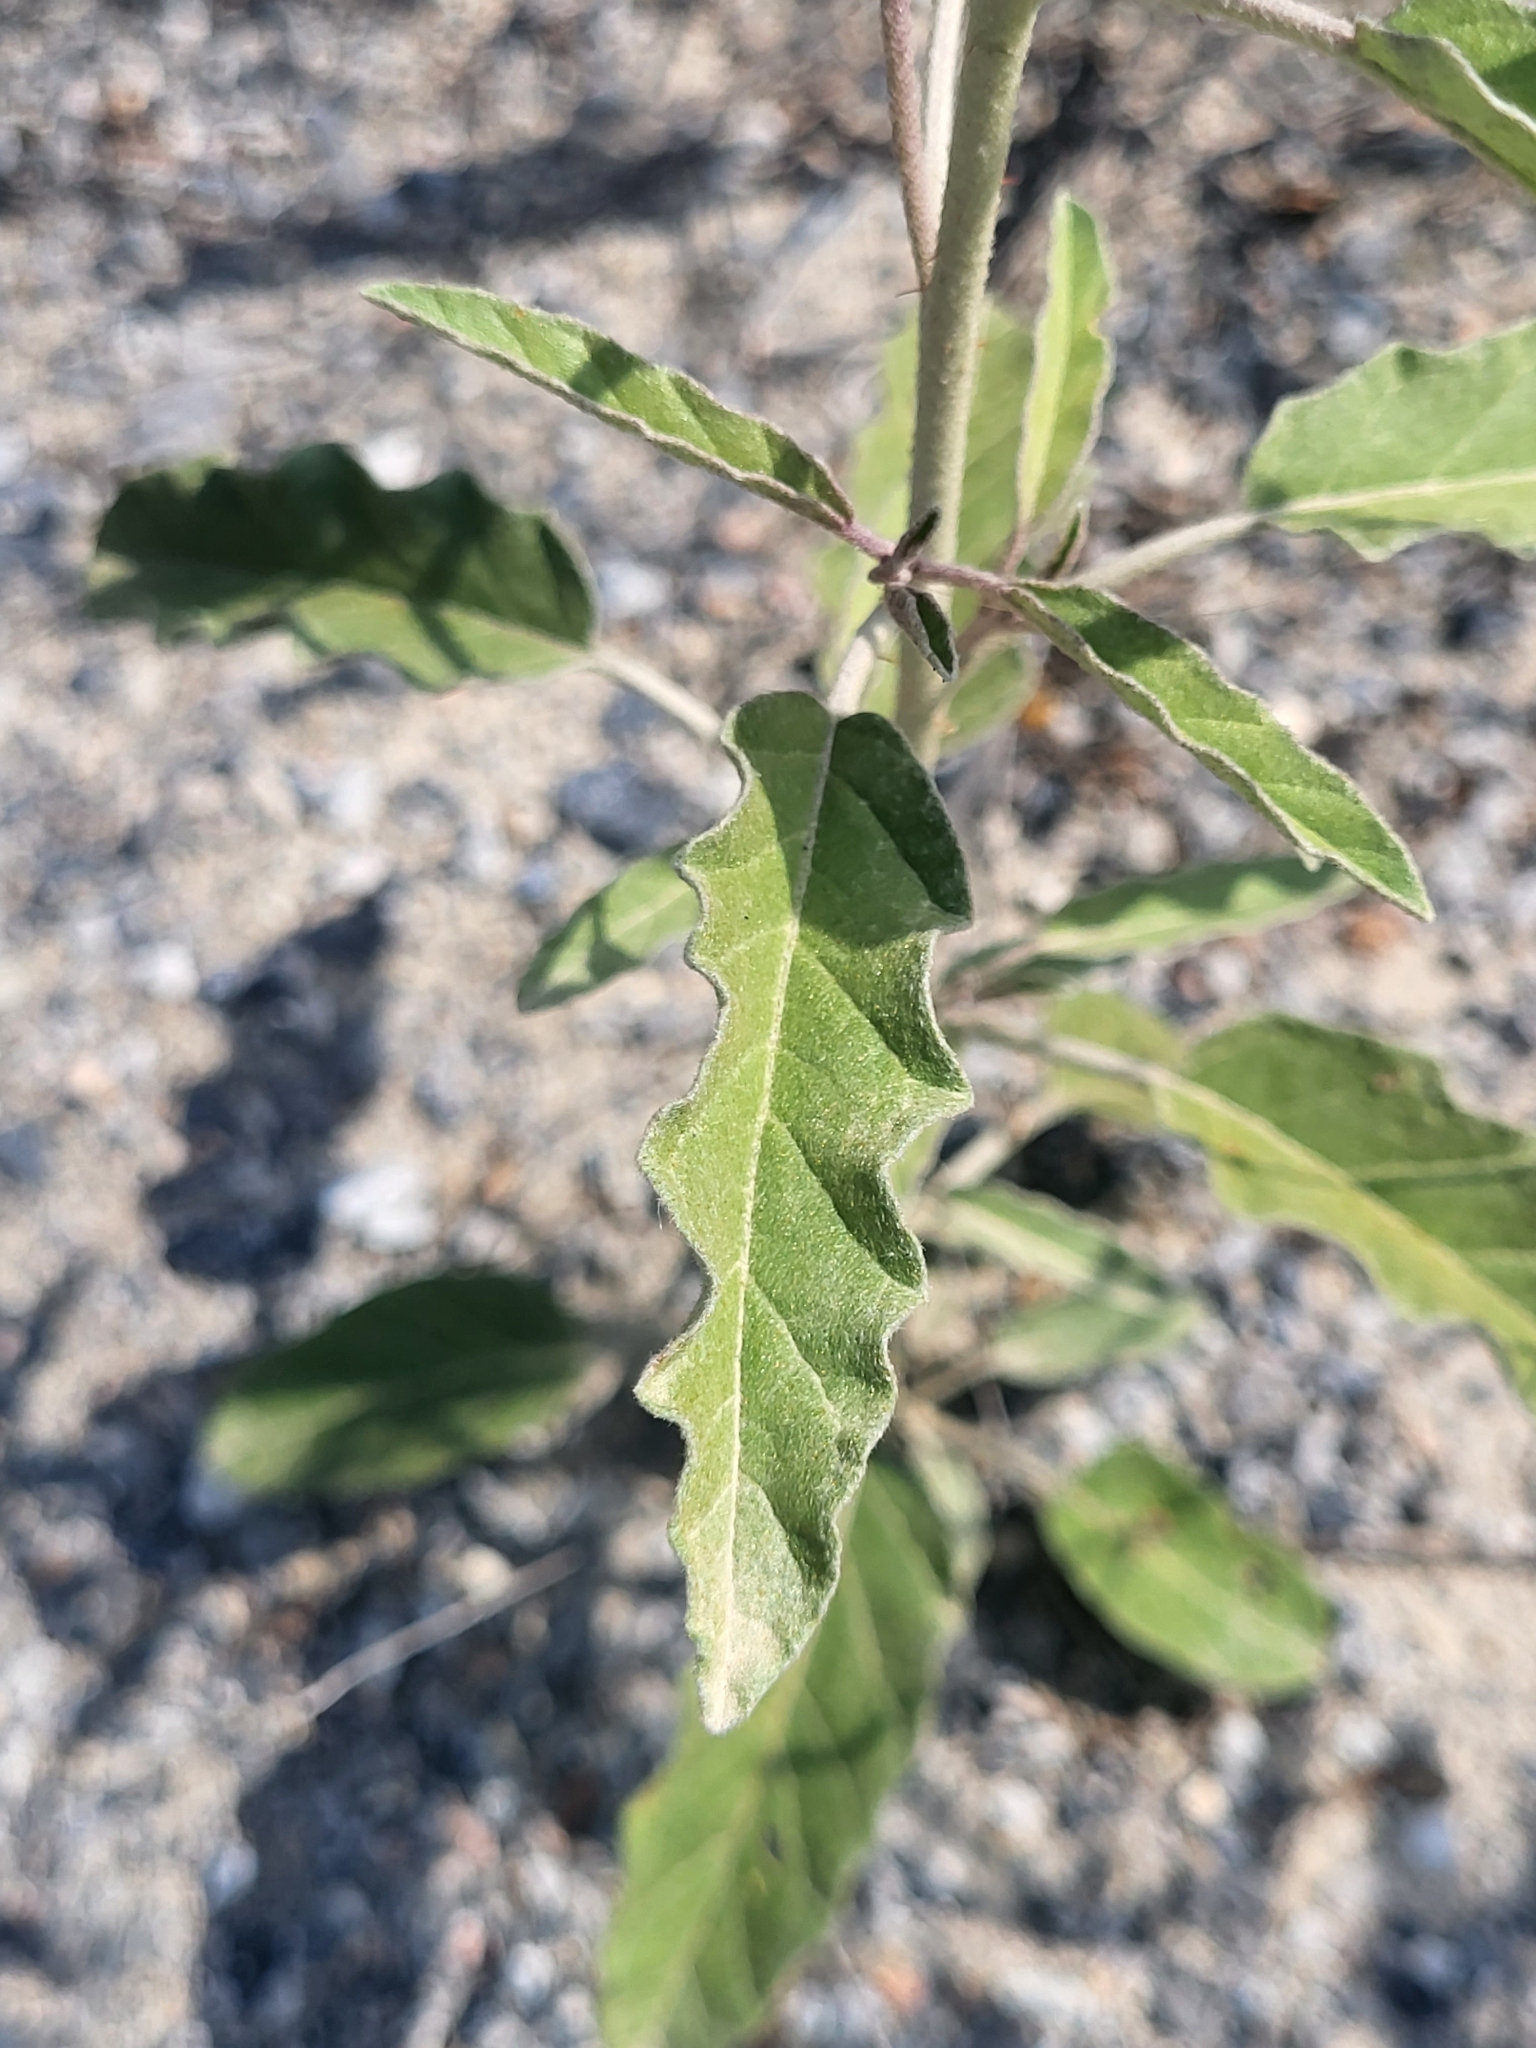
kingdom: Plantae
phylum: Tracheophyta
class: Magnoliopsida
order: Solanales
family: Solanaceae
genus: Solanum
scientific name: Solanum elaeagnifolium
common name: Silverleaf nightshade
